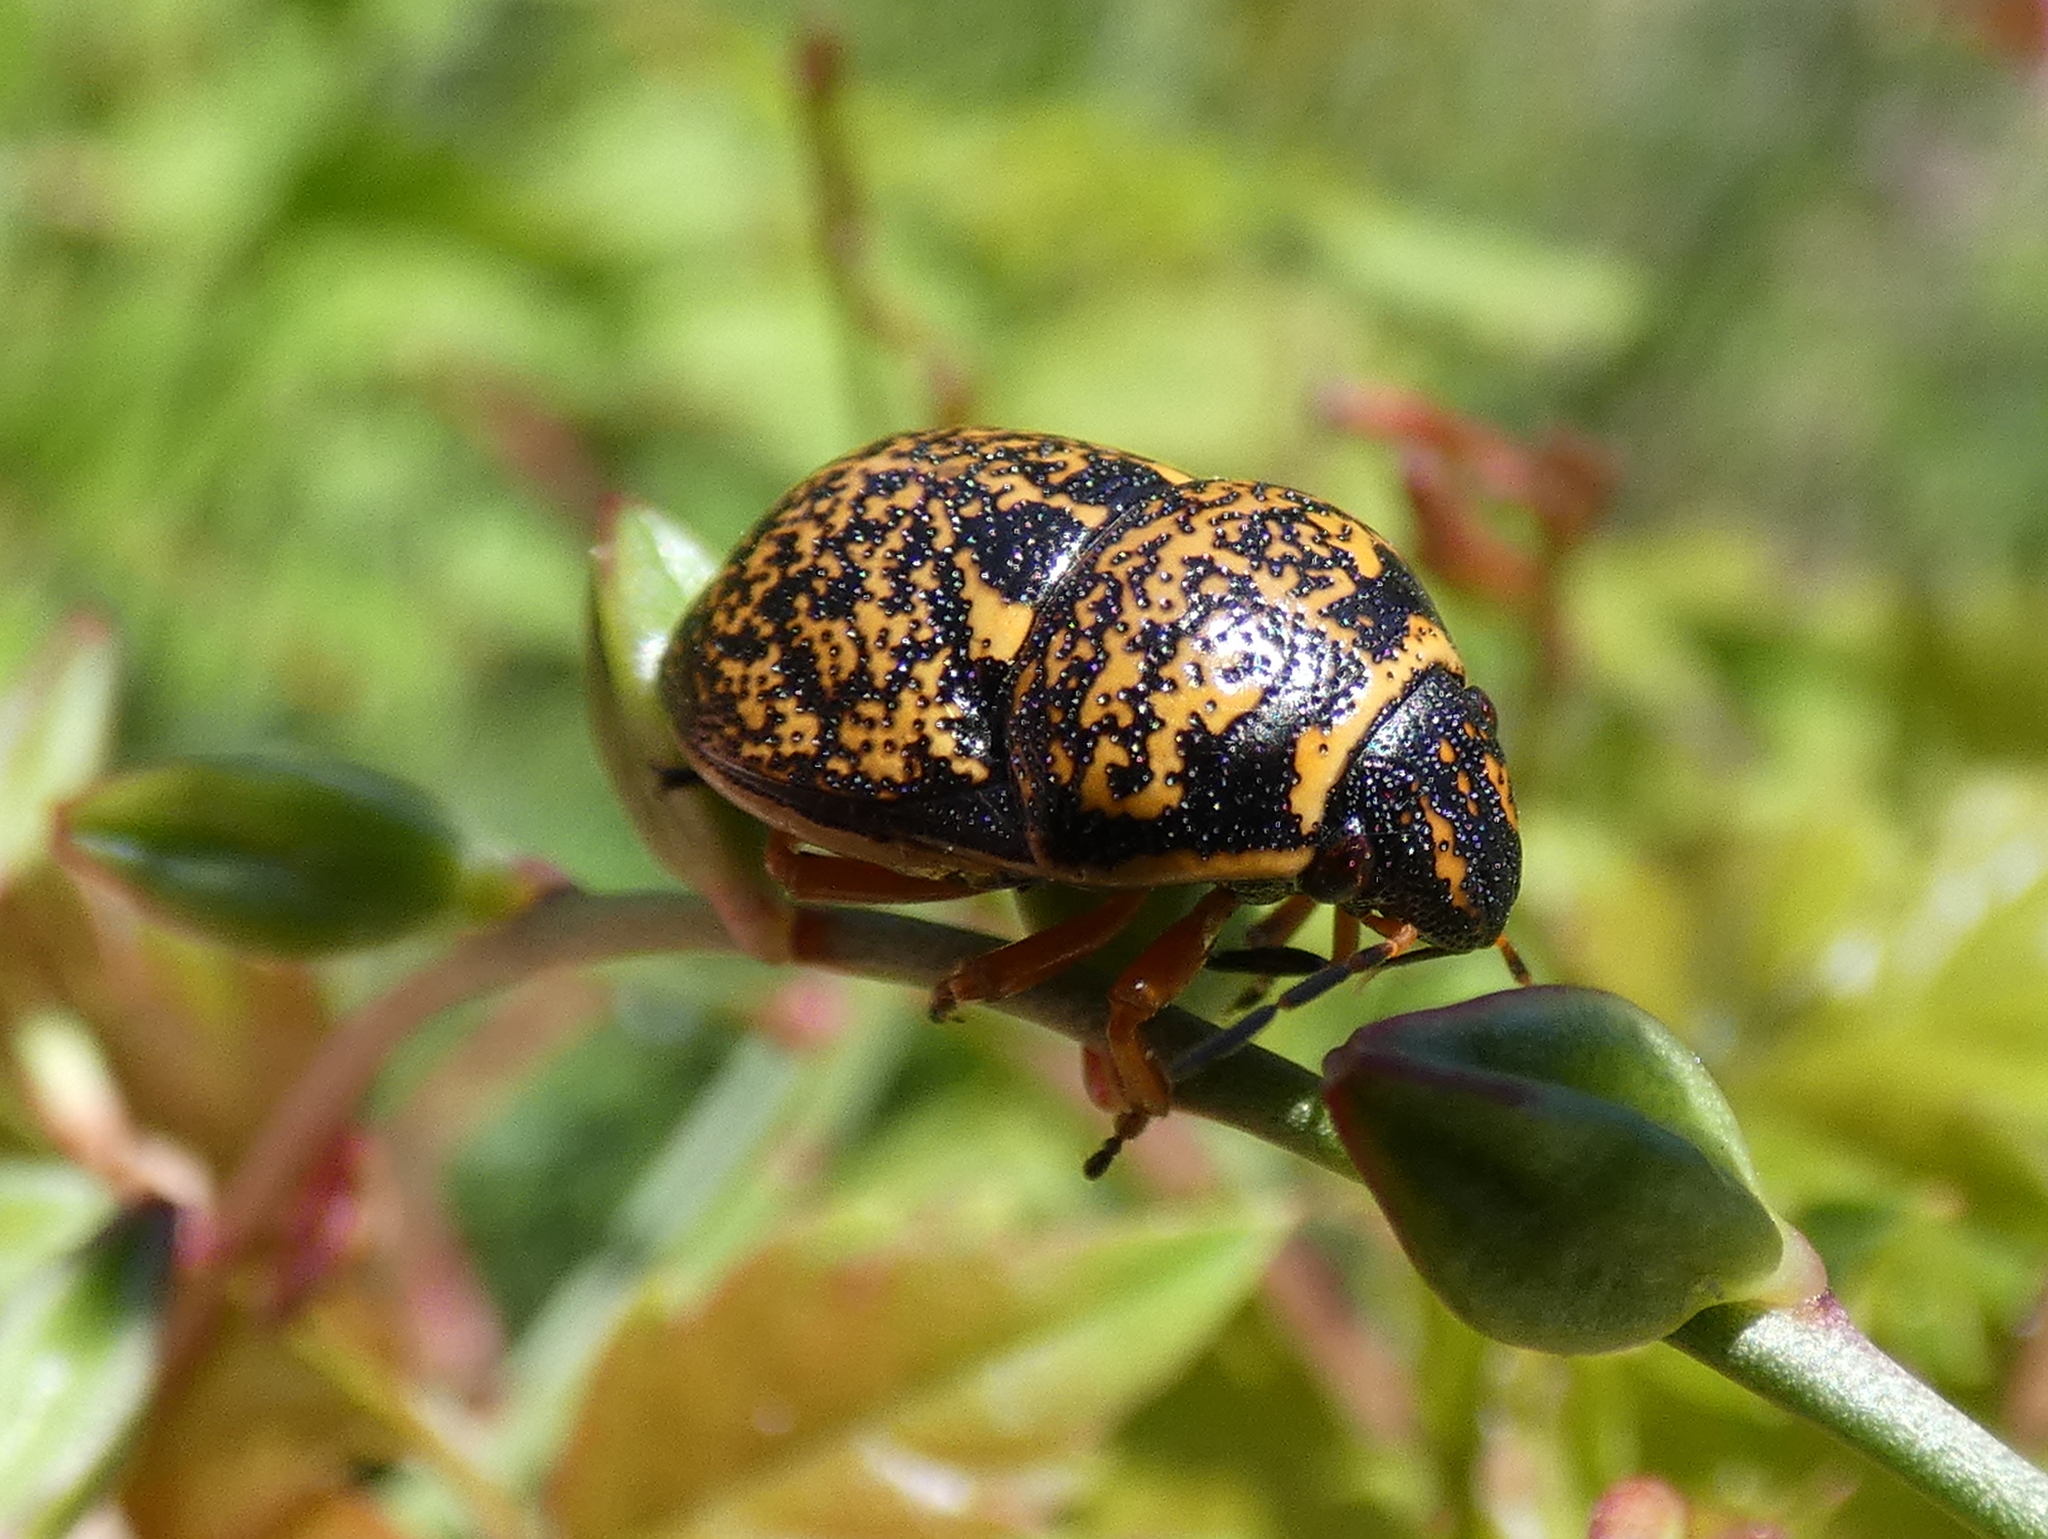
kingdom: Animalia
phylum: Arthropoda
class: Insecta
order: Hemiptera
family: Scutelleridae
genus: Orsilochides
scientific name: Orsilochides guttata
